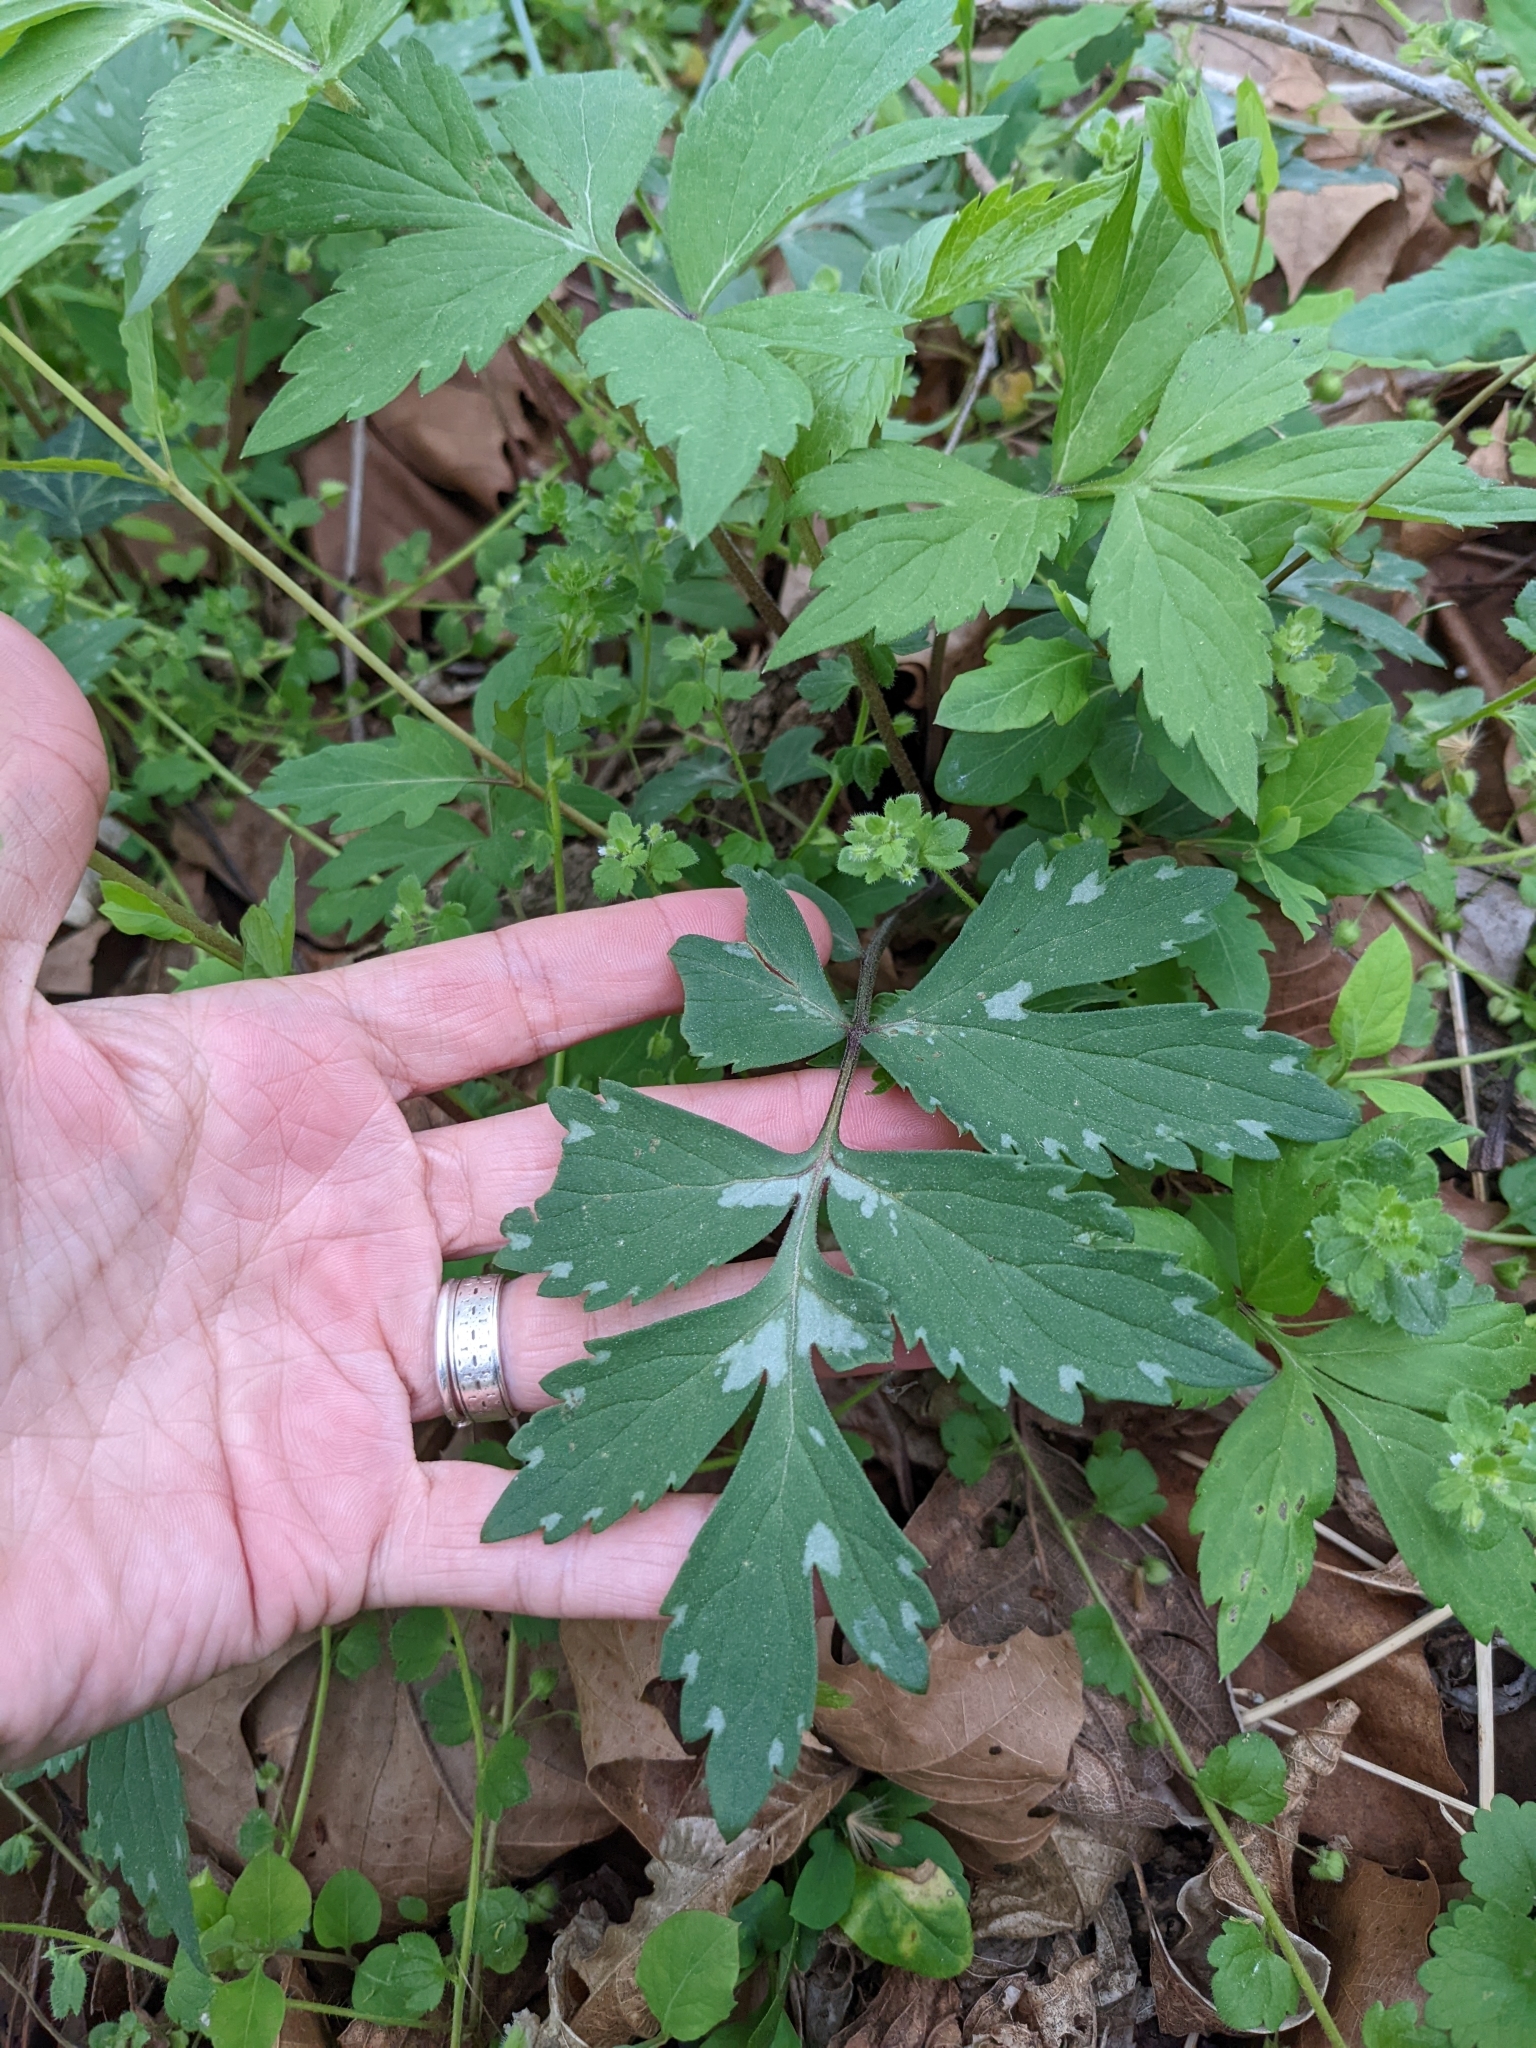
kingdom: Plantae
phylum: Tracheophyta
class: Magnoliopsida
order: Boraginales
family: Hydrophyllaceae
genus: Hydrophyllum
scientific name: Hydrophyllum virginianum
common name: Virginia waterleaf
